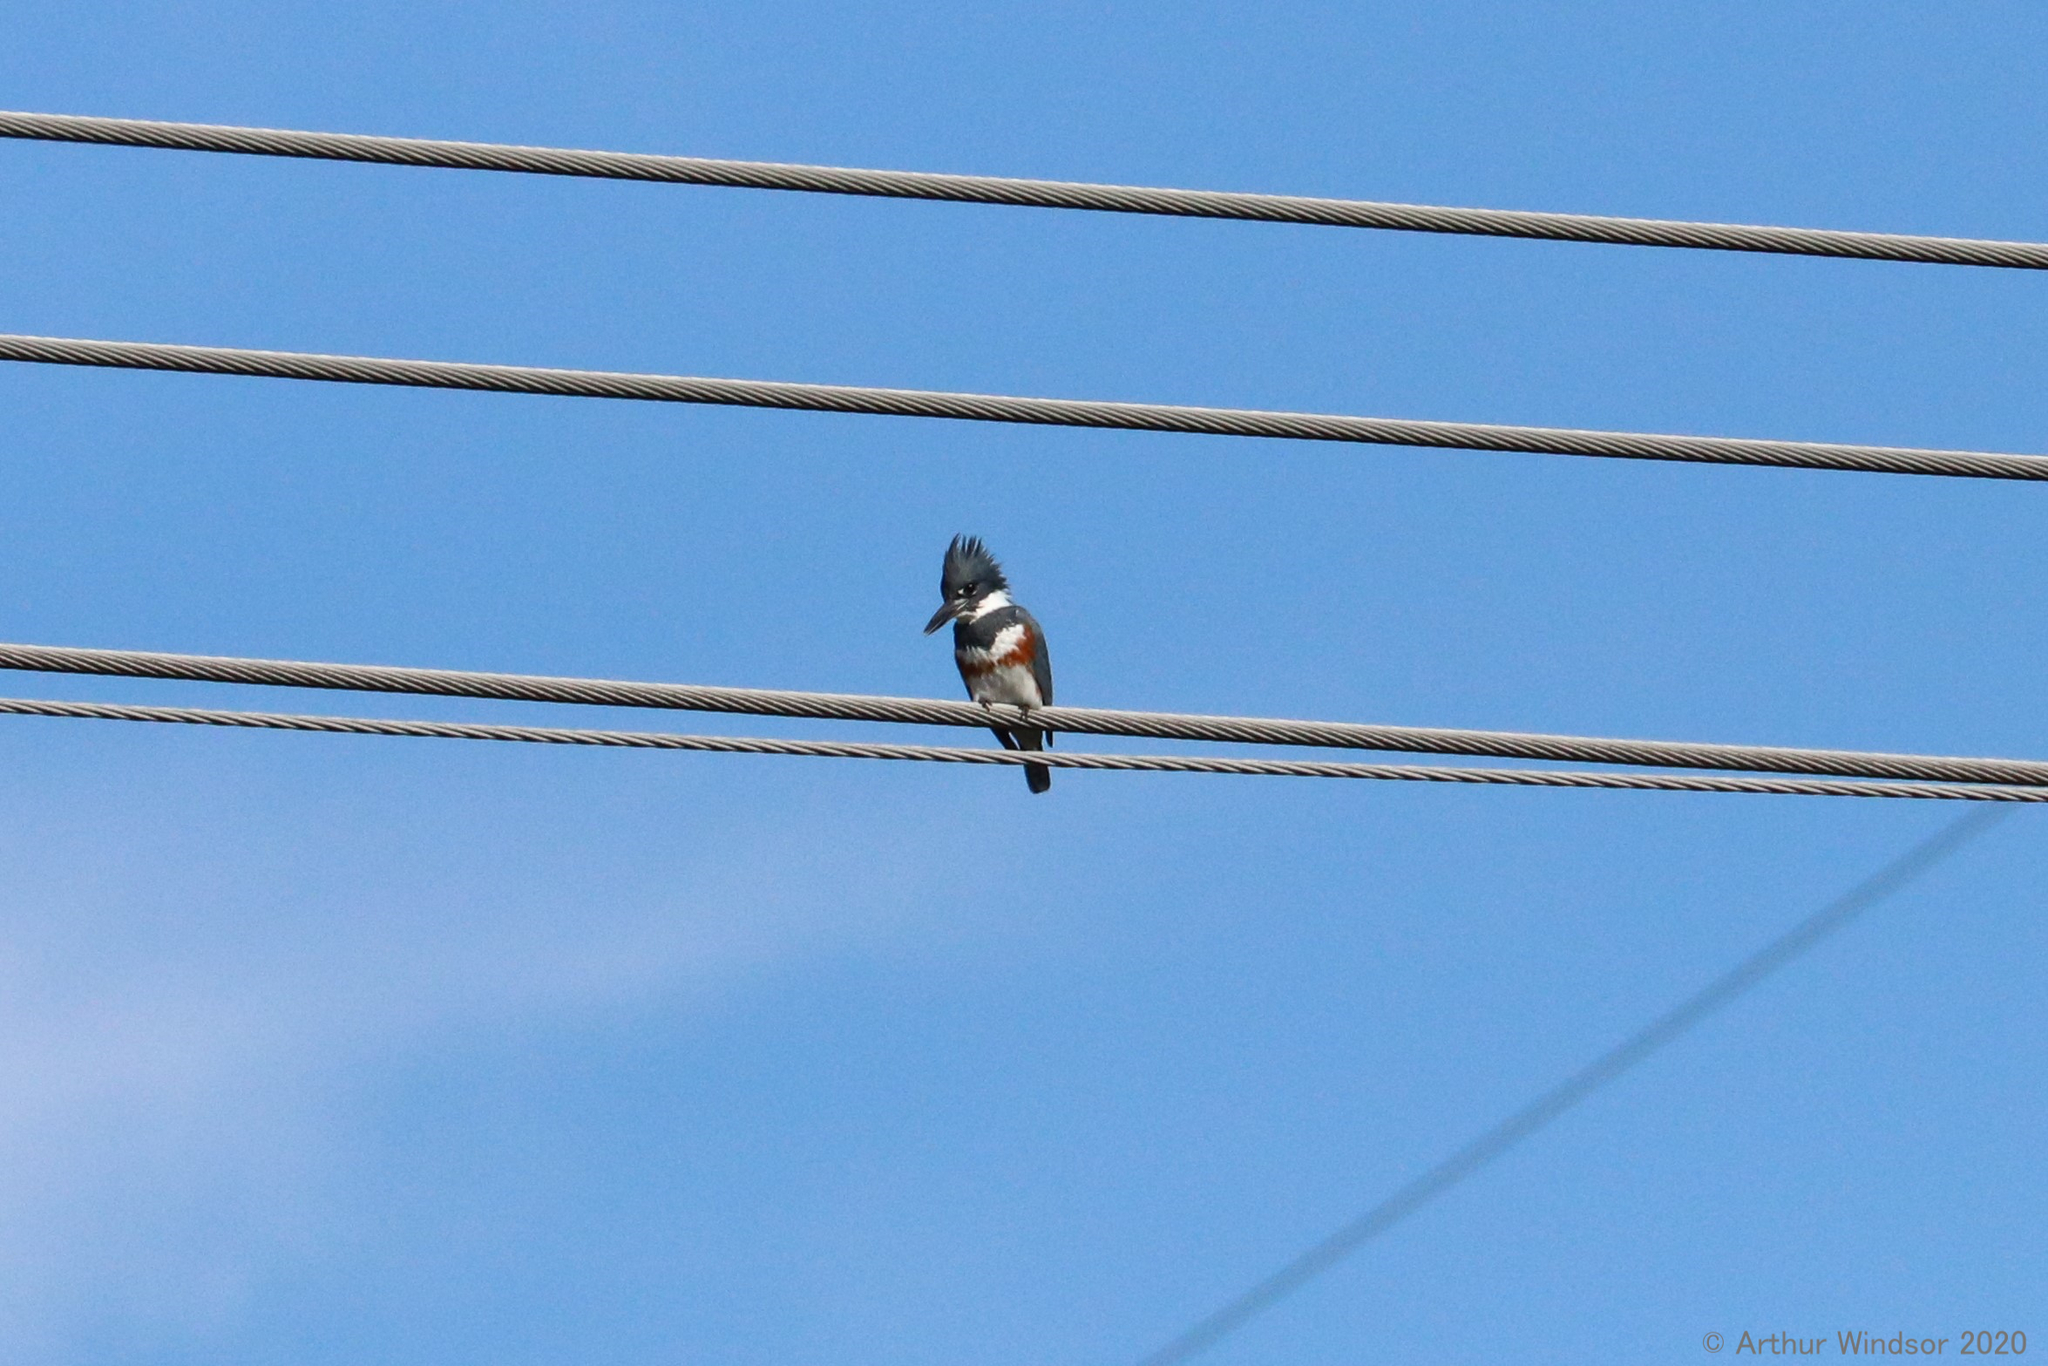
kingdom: Animalia
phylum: Chordata
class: Aves
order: Coraciiformes
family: Alcedinidae
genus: Megaceryle
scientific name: Megaceryle alcyon
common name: Belted kingfisher
